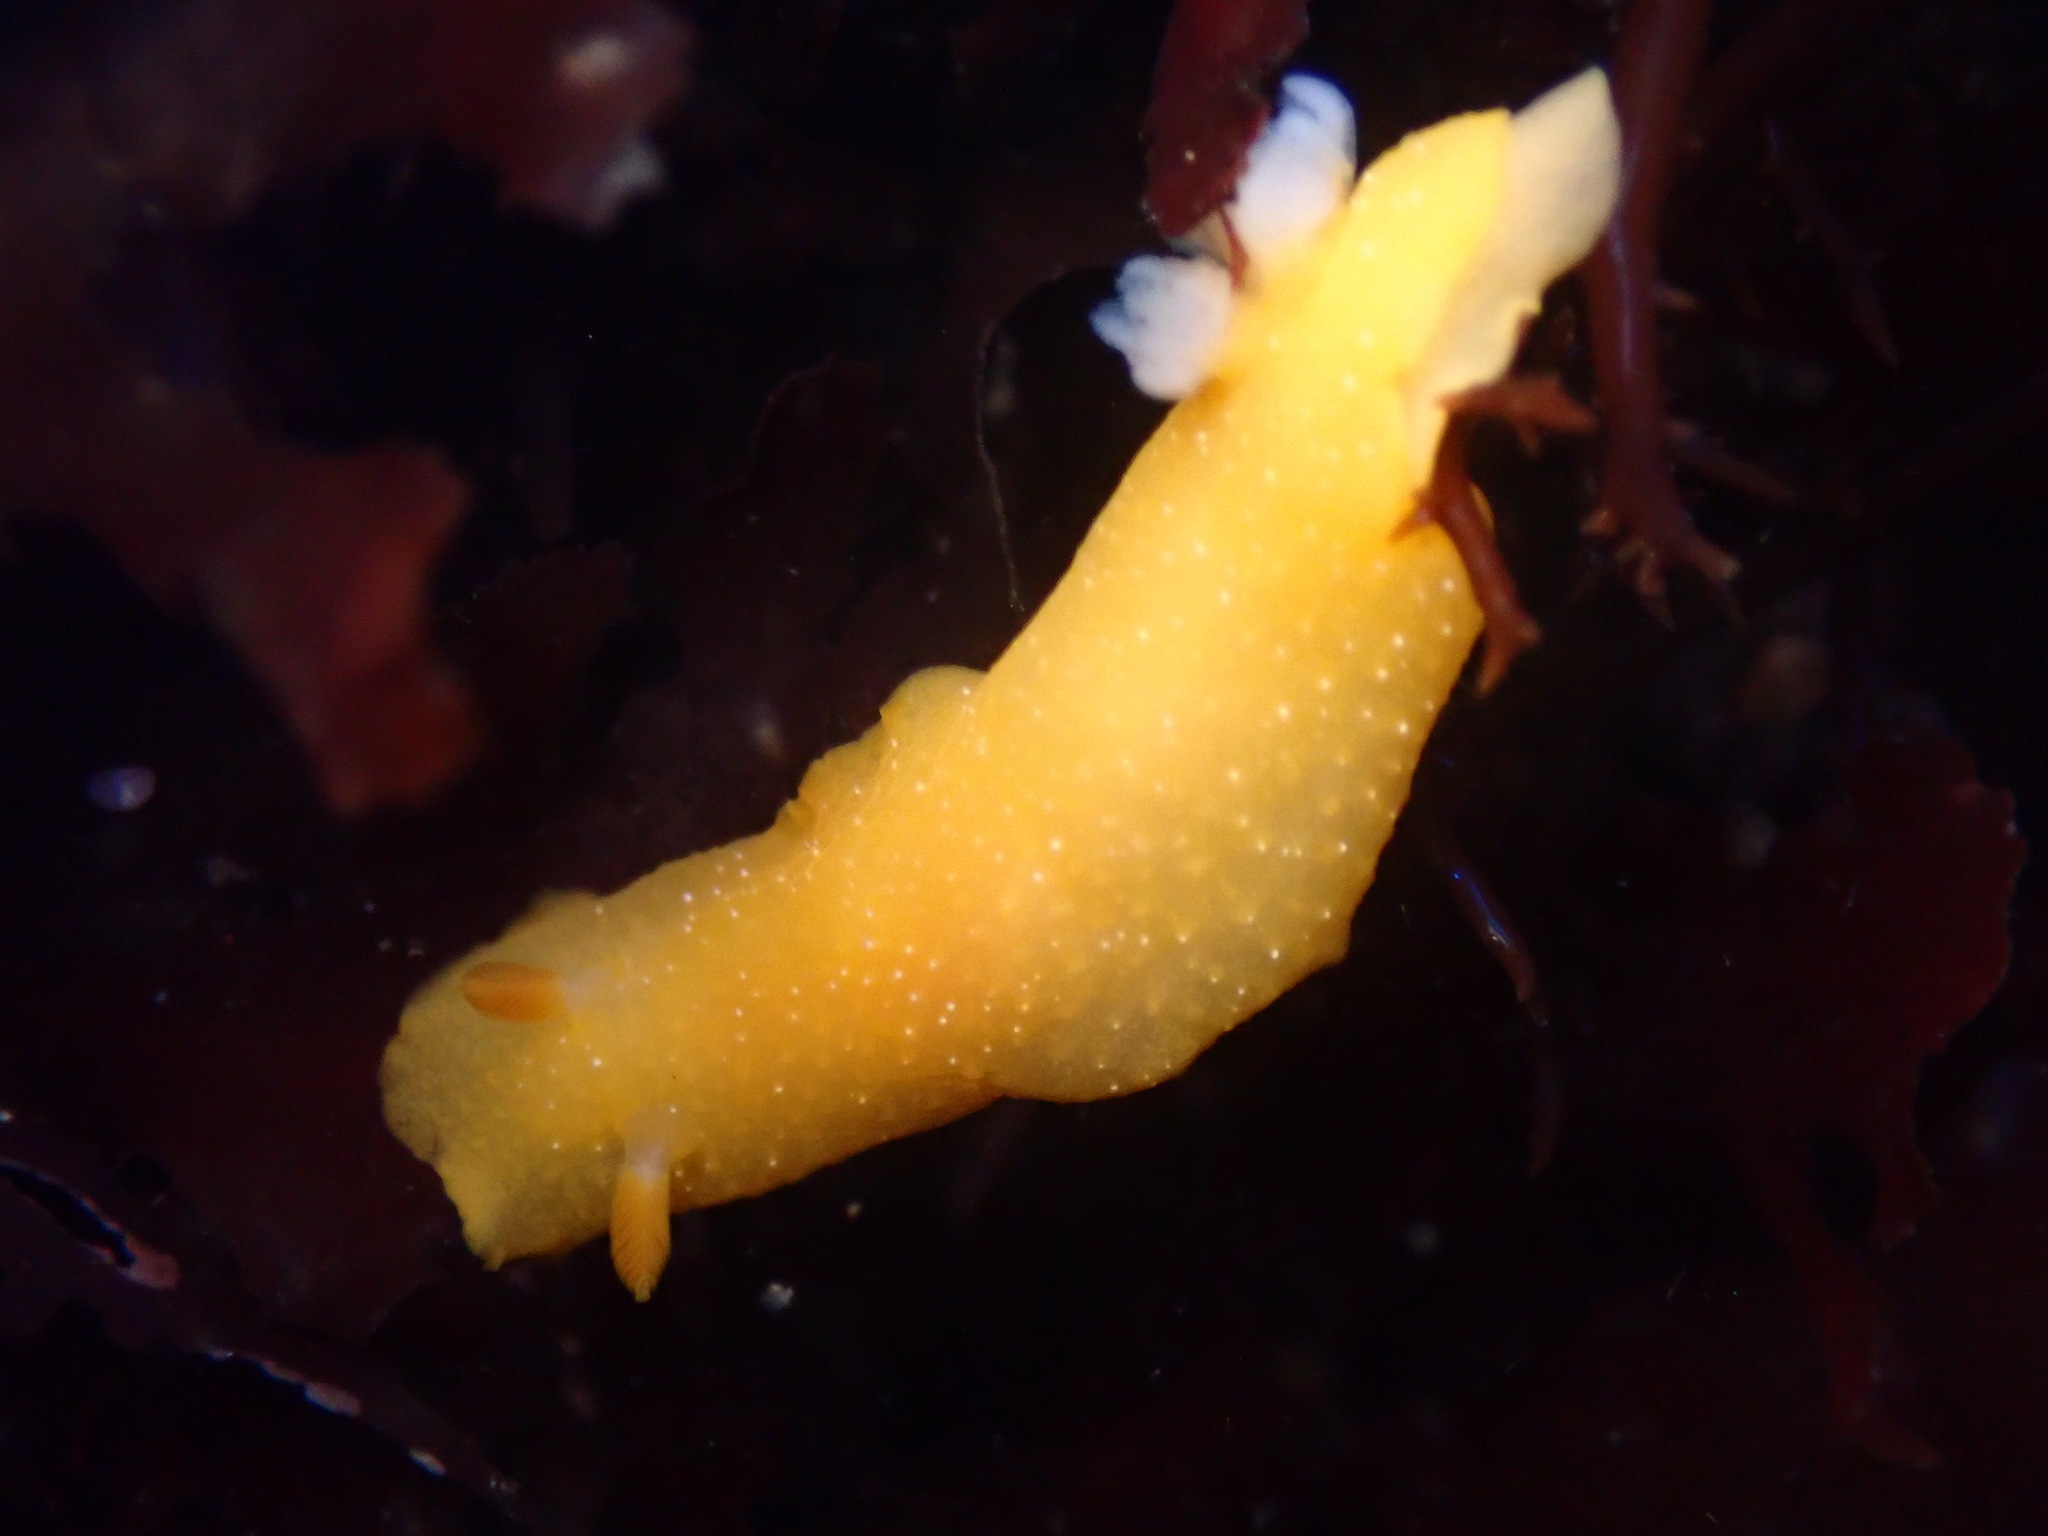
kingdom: Animalia
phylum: Mollusca
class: Gastropoda
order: Nudibranchia
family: Dendrodorididae
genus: Doriopsilla
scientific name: Doriopsilla fulva
